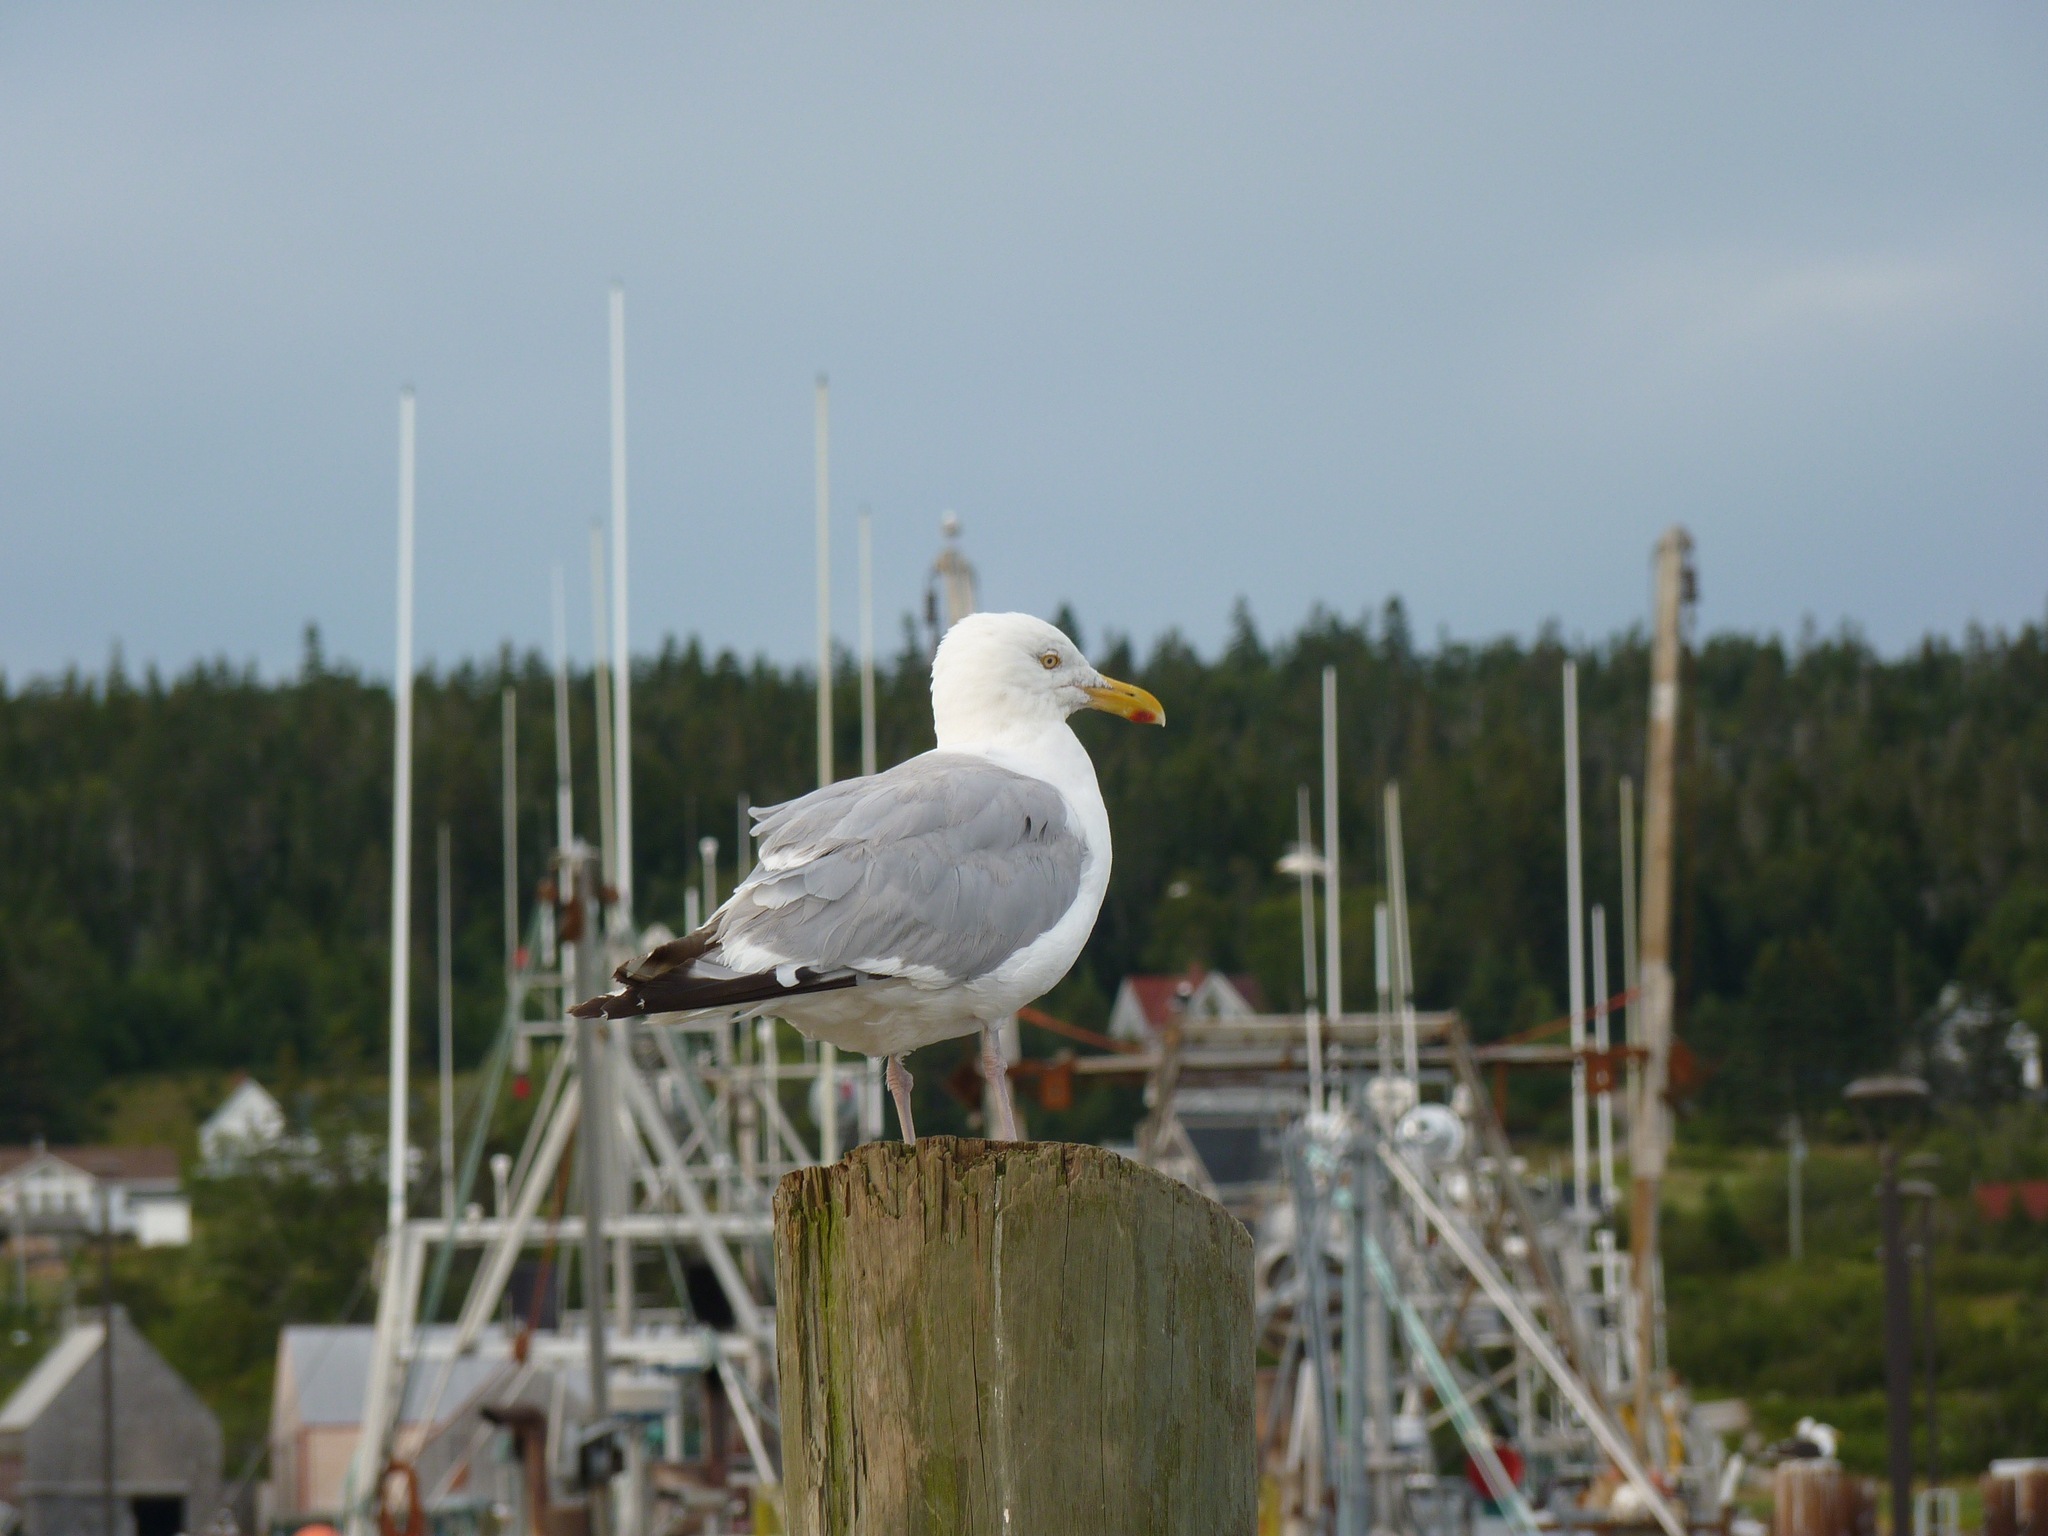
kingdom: Animalia
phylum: Chordata
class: Aves
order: Charadriiformes
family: Laridae
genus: Larus
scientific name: Larus argentatus
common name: Herring gull
